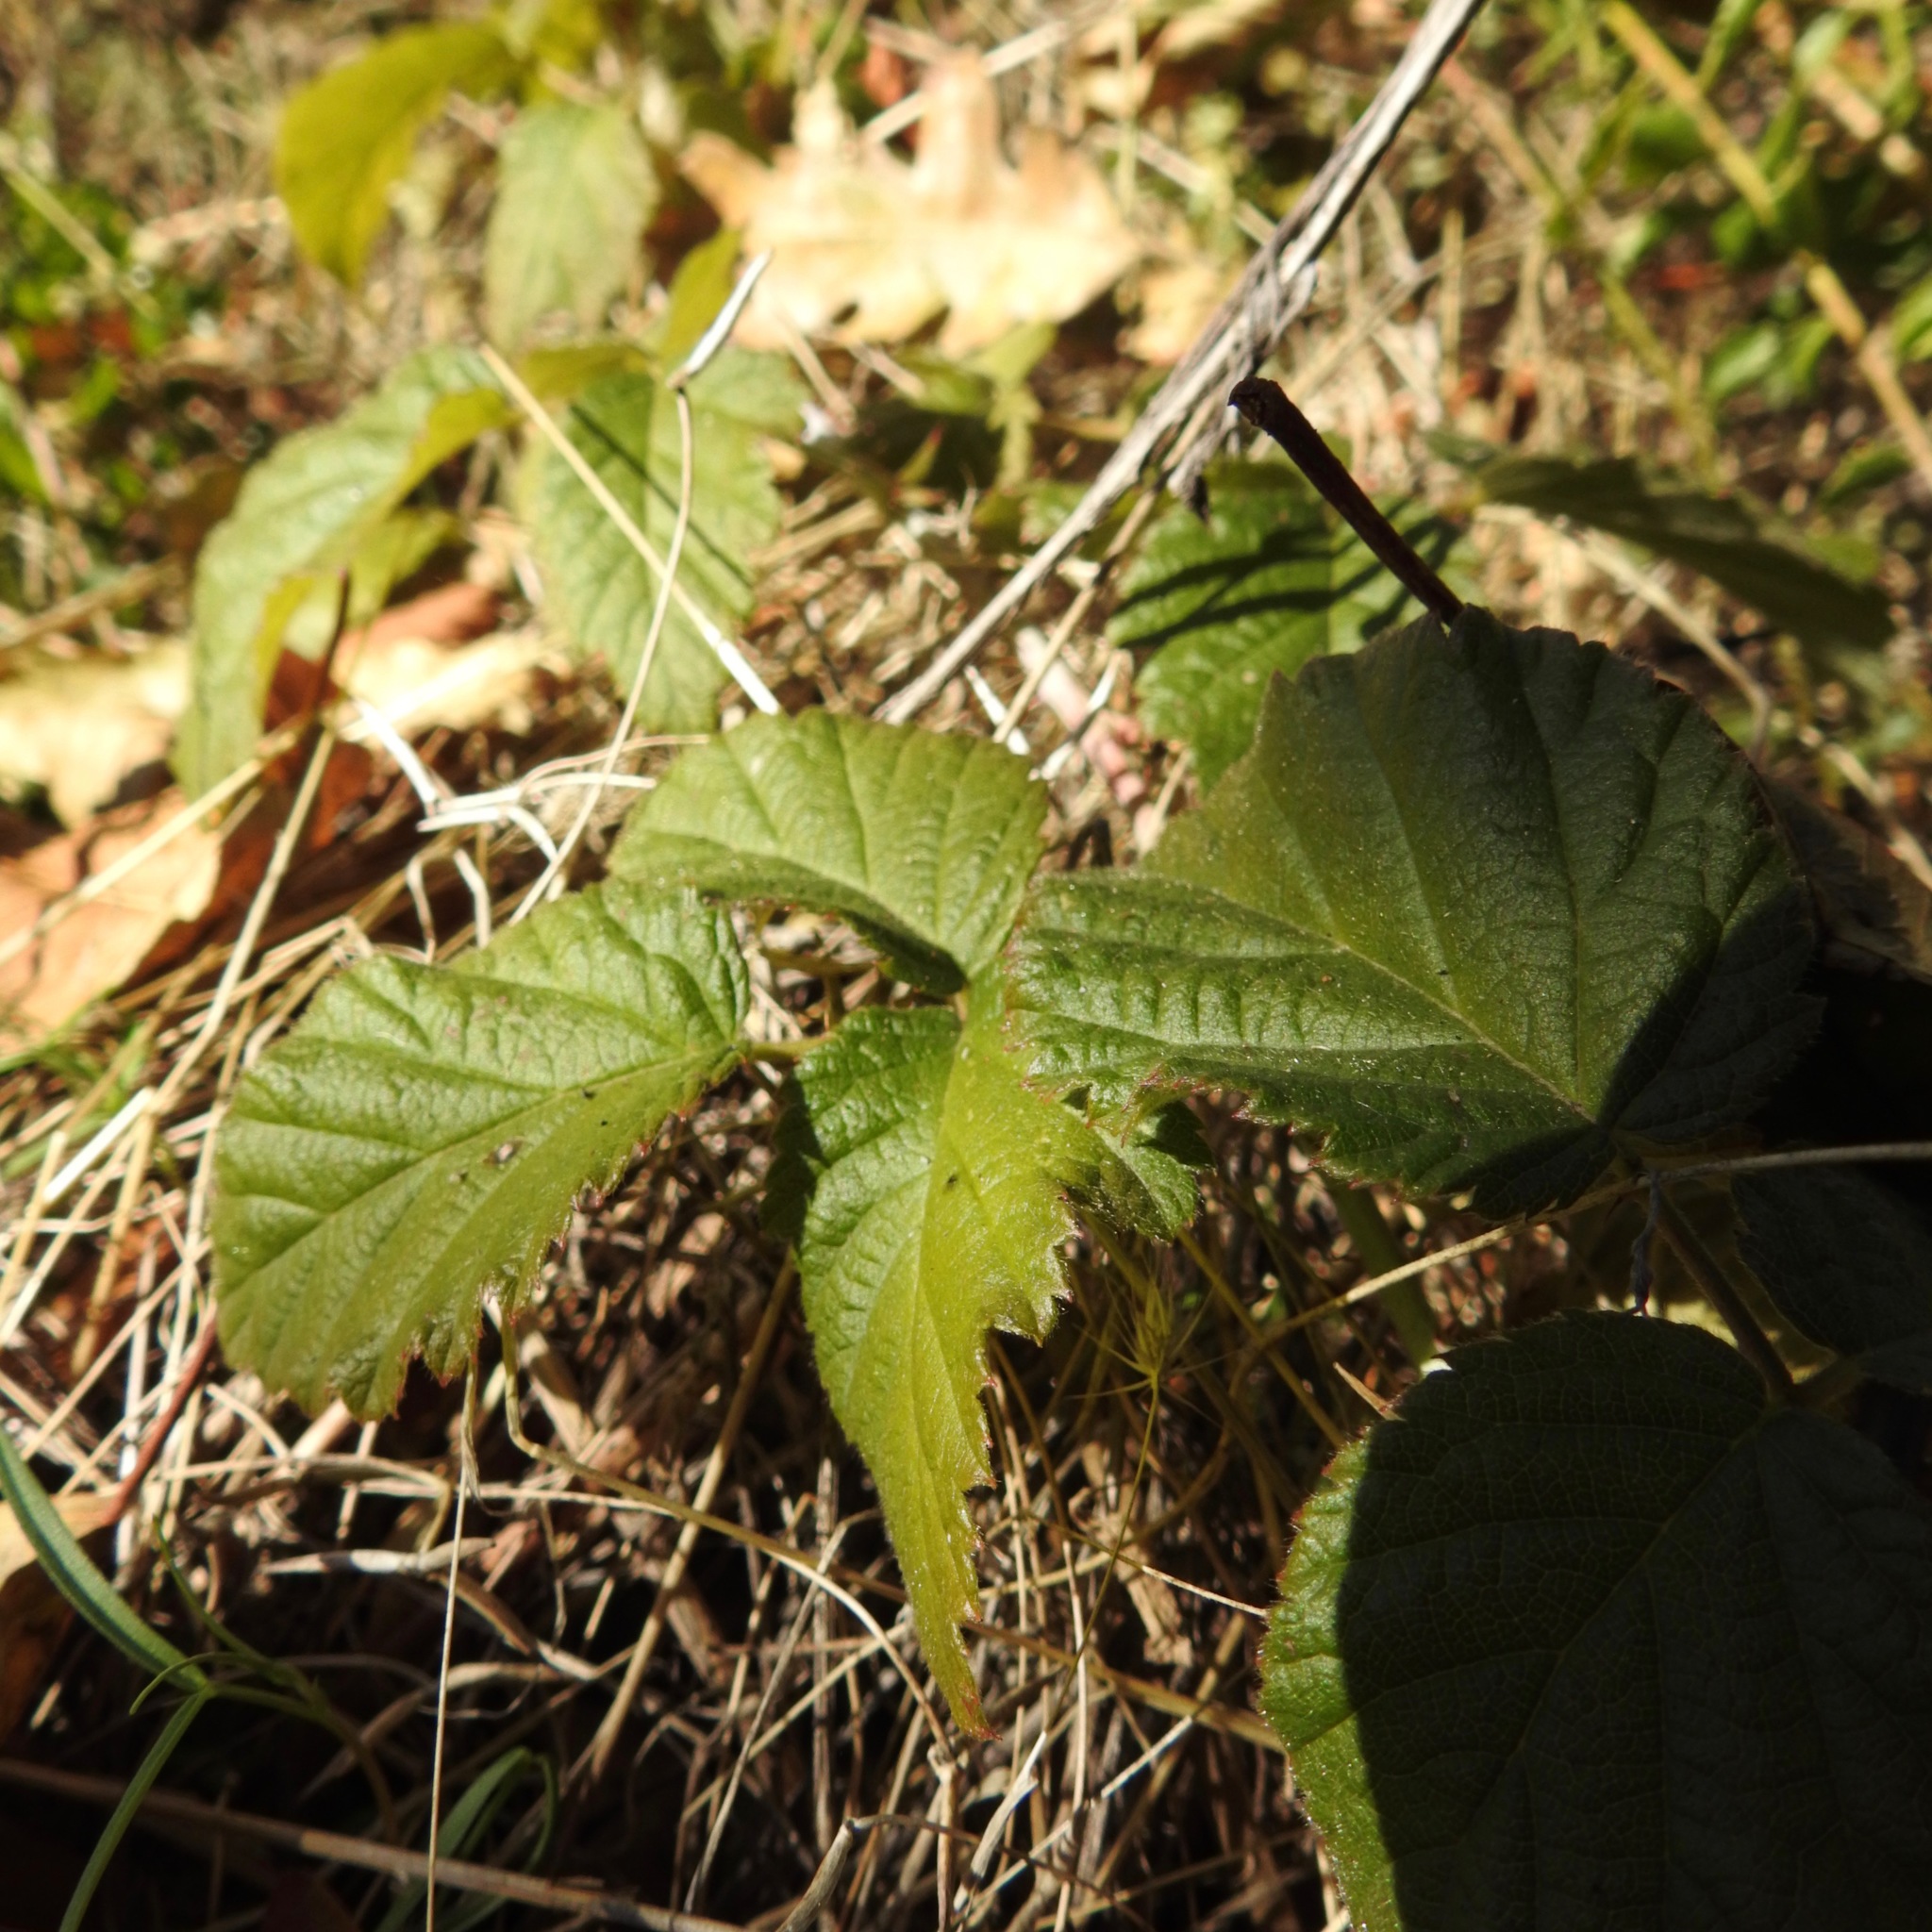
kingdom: Plantae
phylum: Tracheophyta
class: Magnoliopsida
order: Rosales
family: Rosaceae
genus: Rubus
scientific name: Rubus ursinus
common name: Pacific blackberry
